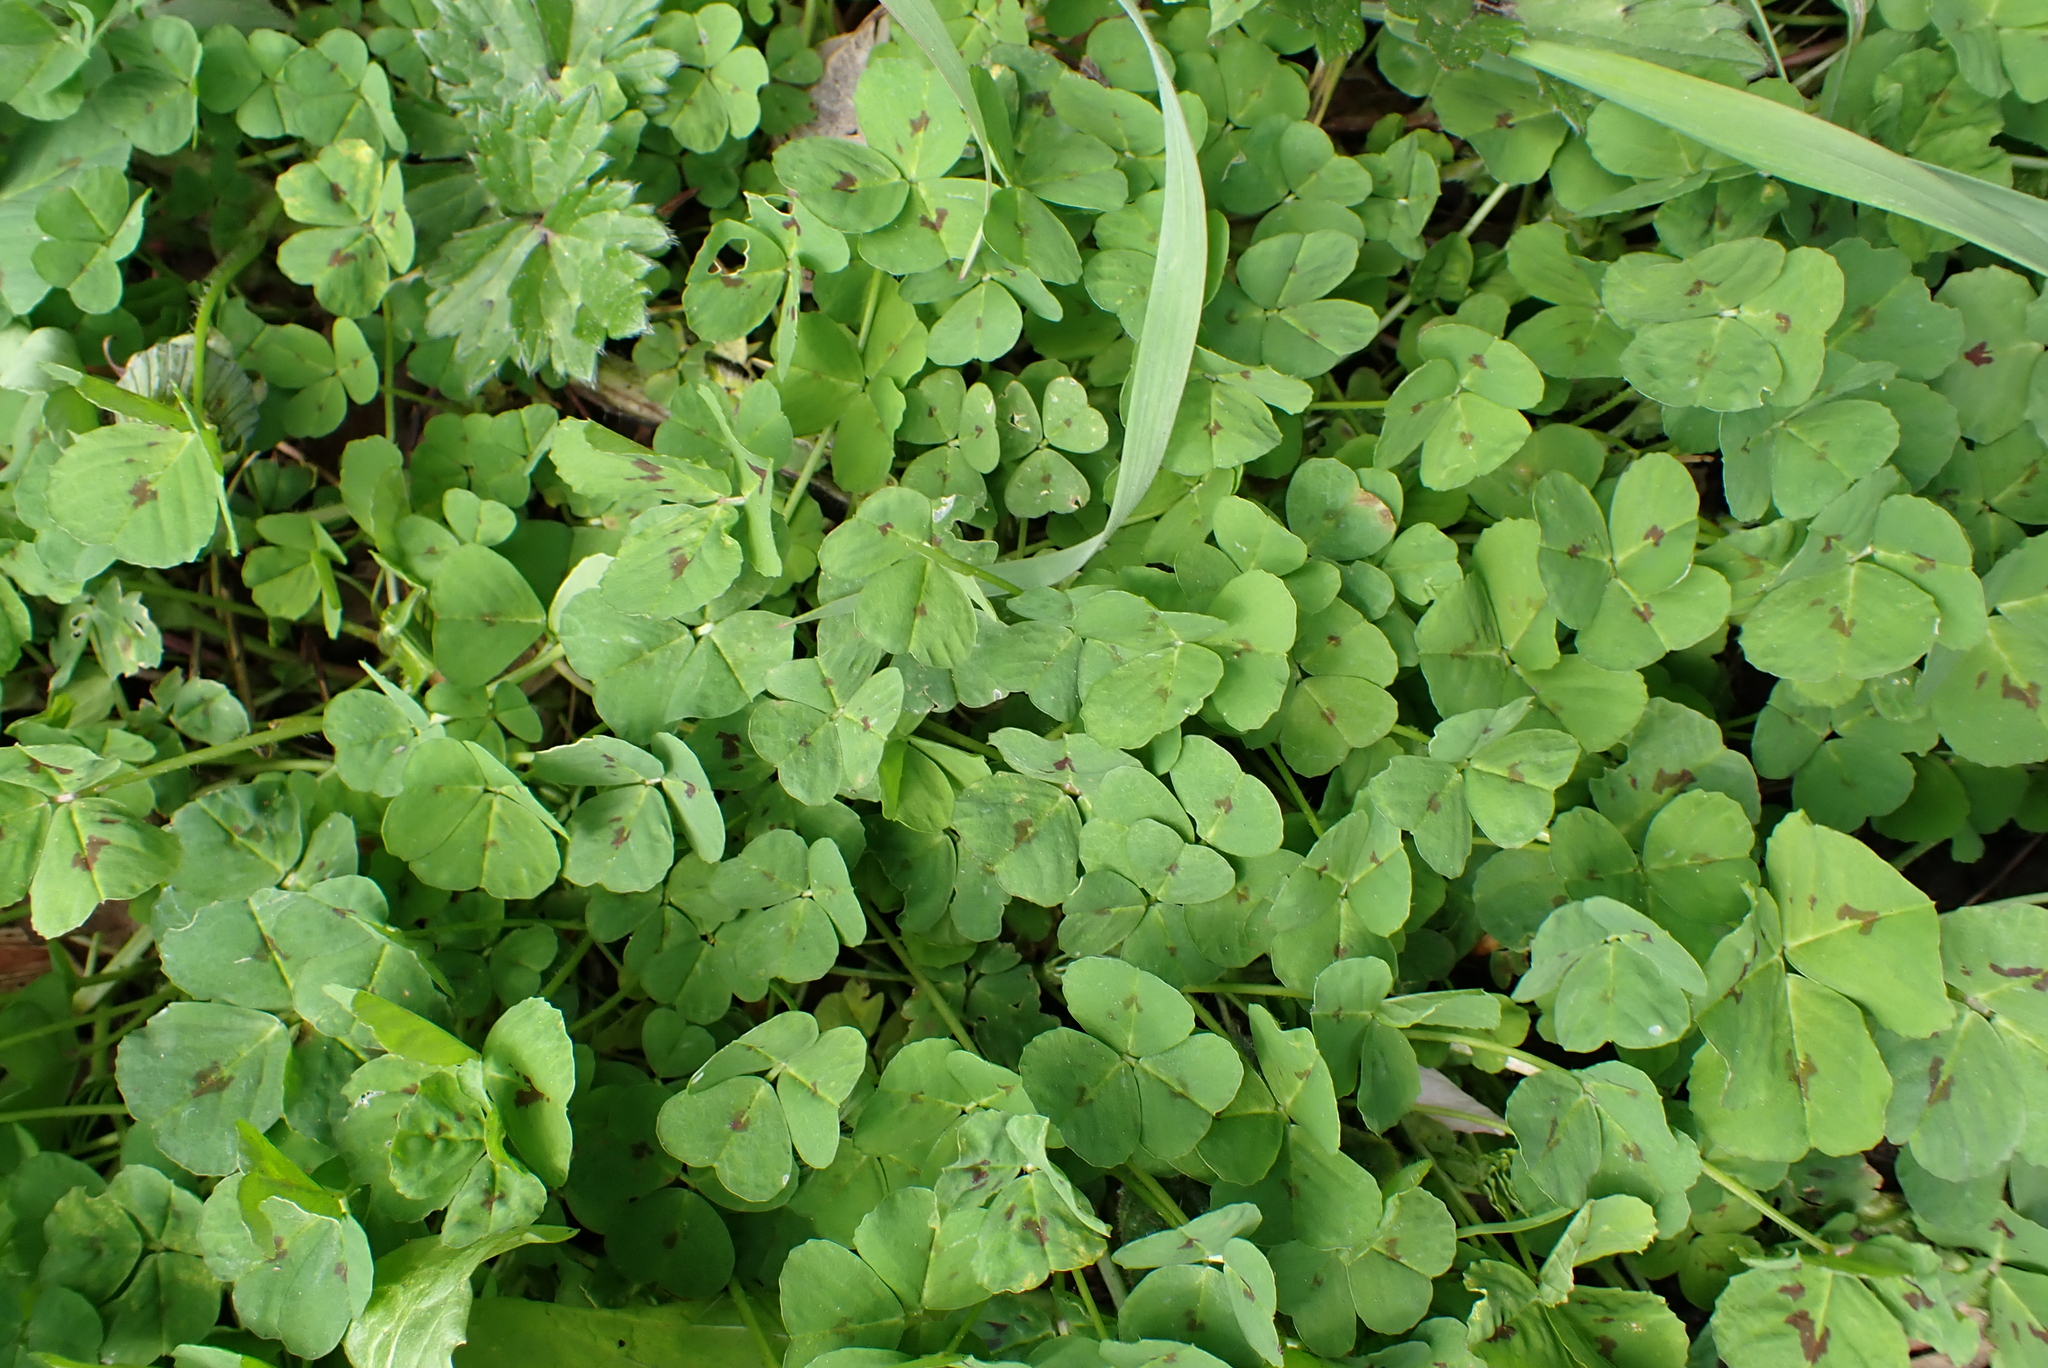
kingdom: Plantae
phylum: Tracheophyta
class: Magnoliopsida
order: Fabales
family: Fabaceae
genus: Medicago
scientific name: Medicago arabica
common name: Spotted medick
